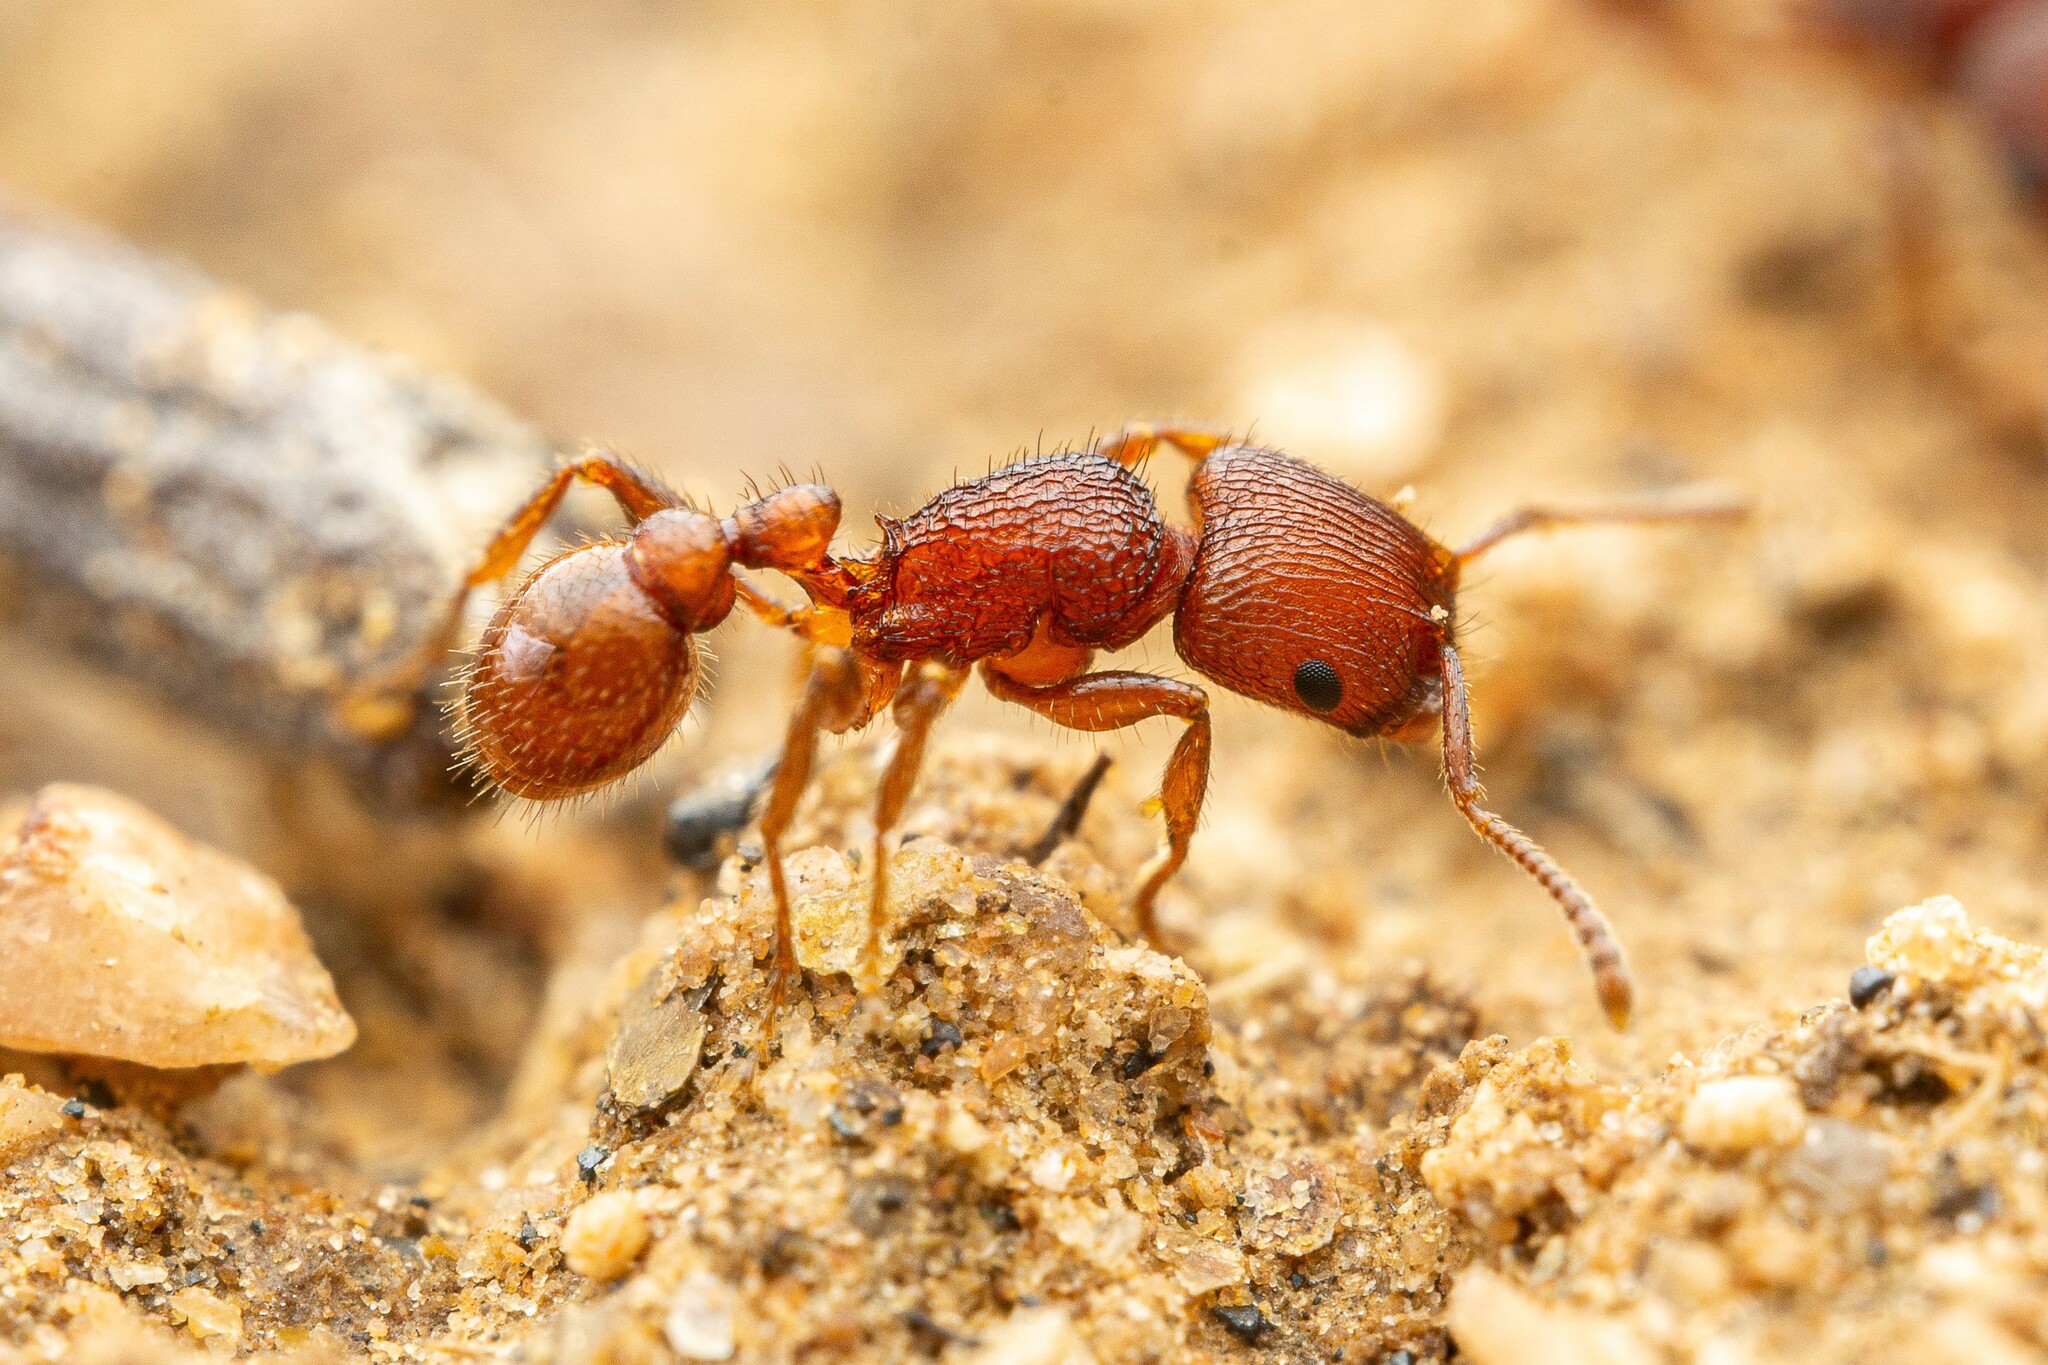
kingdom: Animalia
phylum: Arthropoda
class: Insecta
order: Hymenoptera
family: Formicidae
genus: Pogonomyrmex
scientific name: Pogonomyrmex pima
